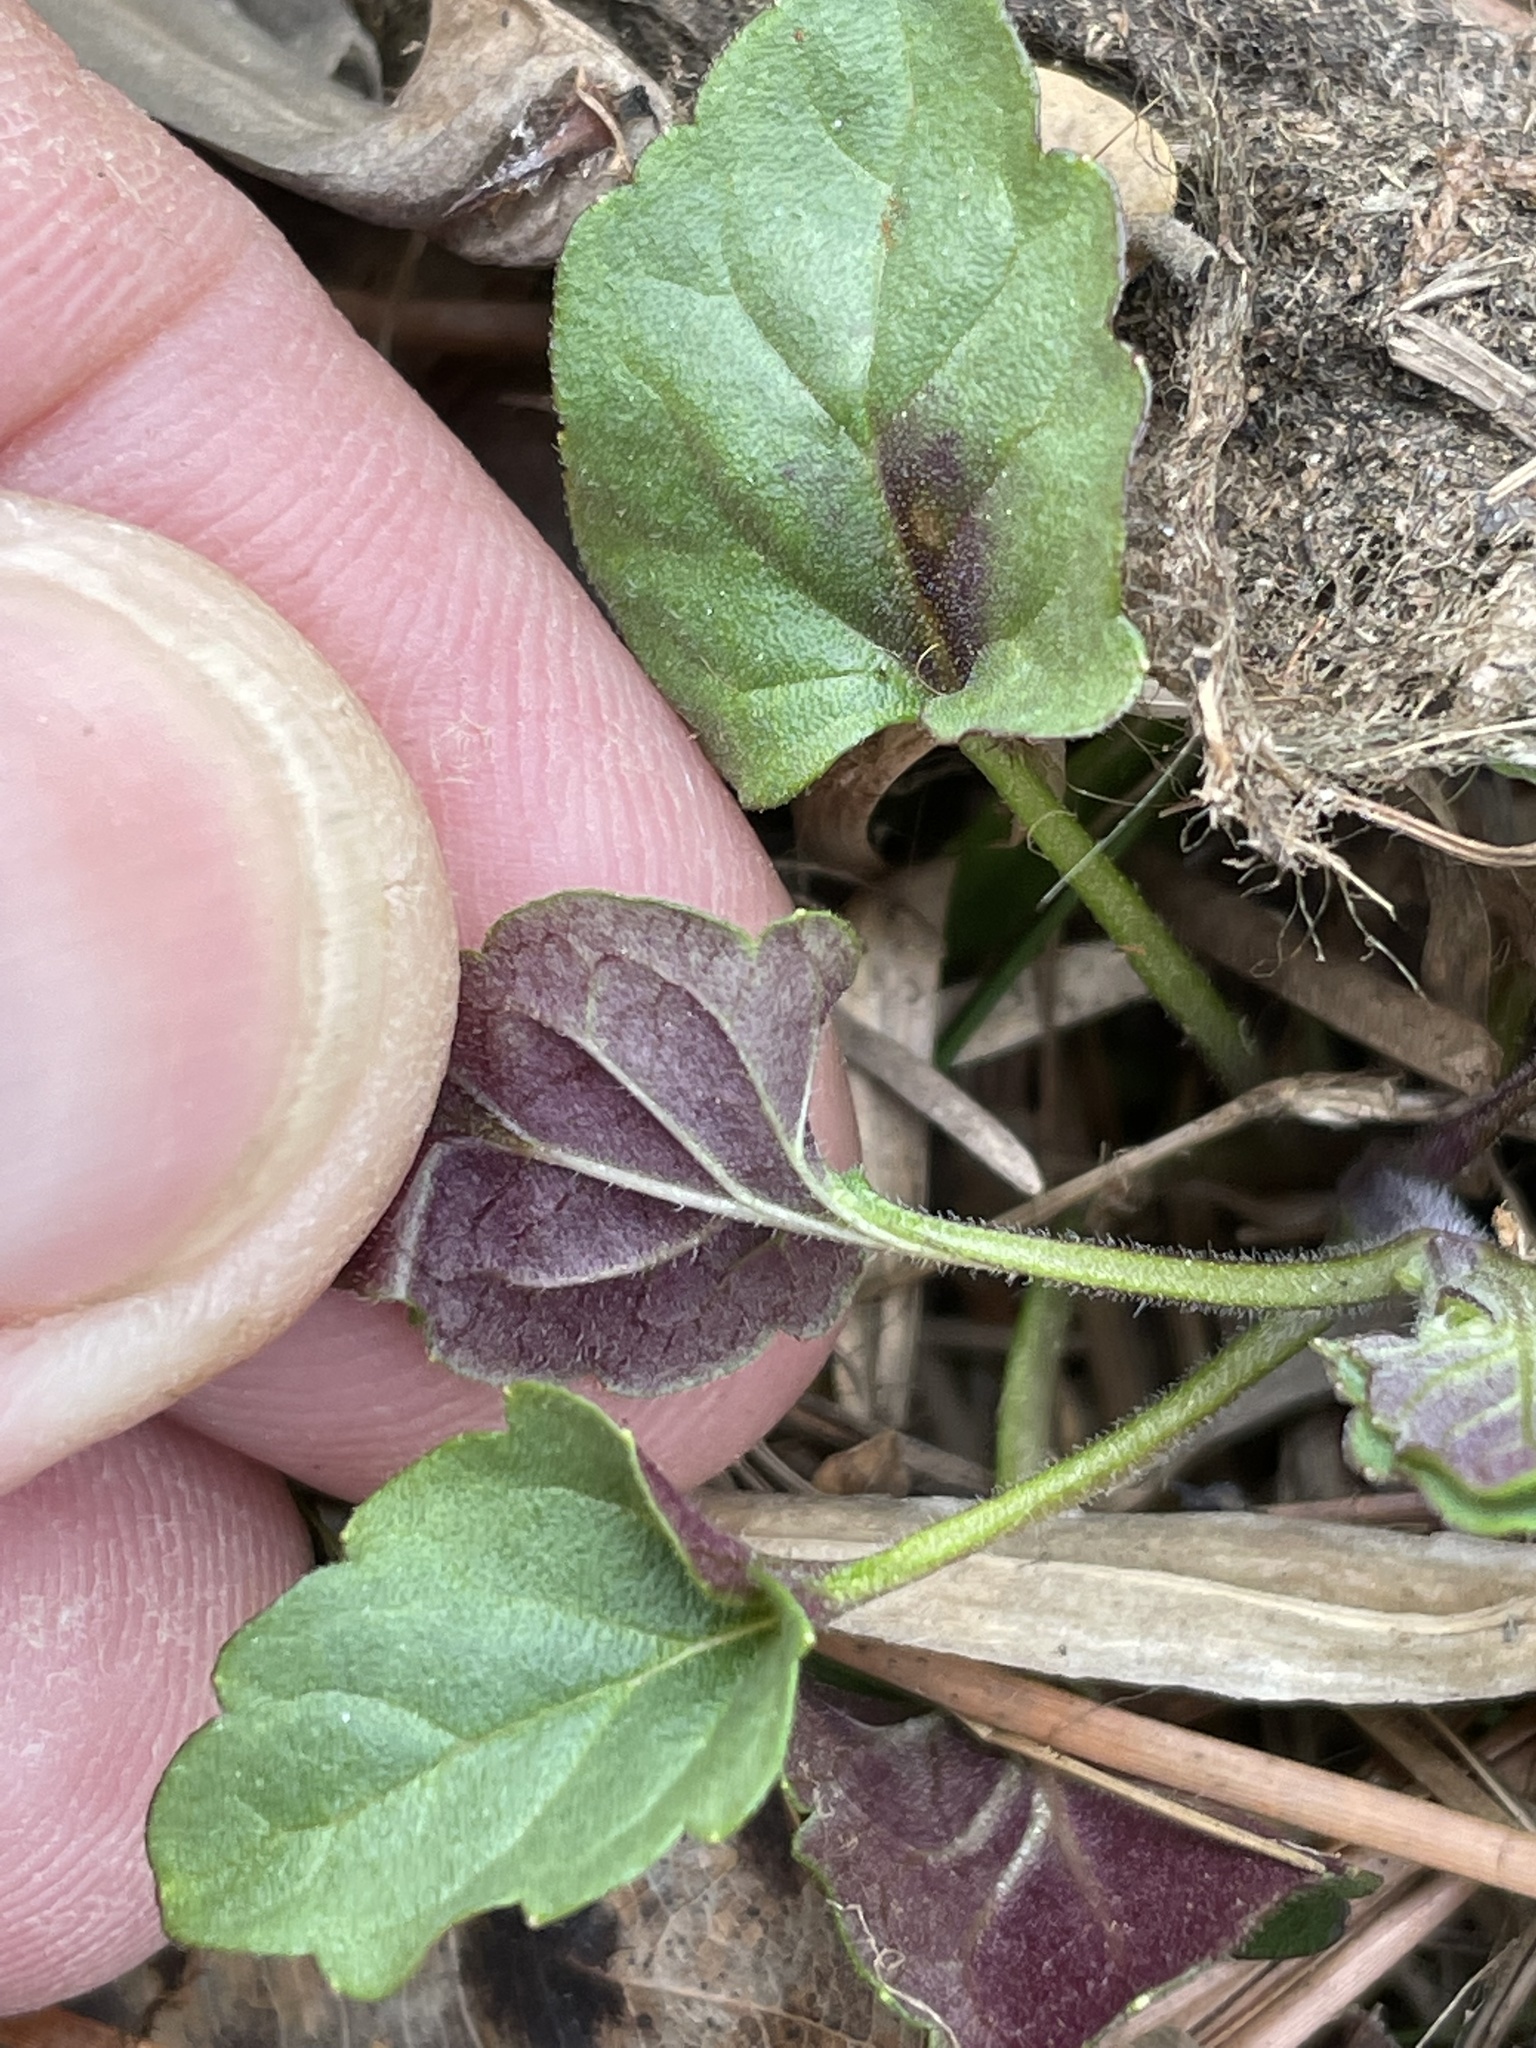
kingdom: Plantae
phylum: Tracheophyta
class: Magnoliopsida
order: Lamiales
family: Lamiaceae
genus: Scutellaria
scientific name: Scutellaria integrifolia
